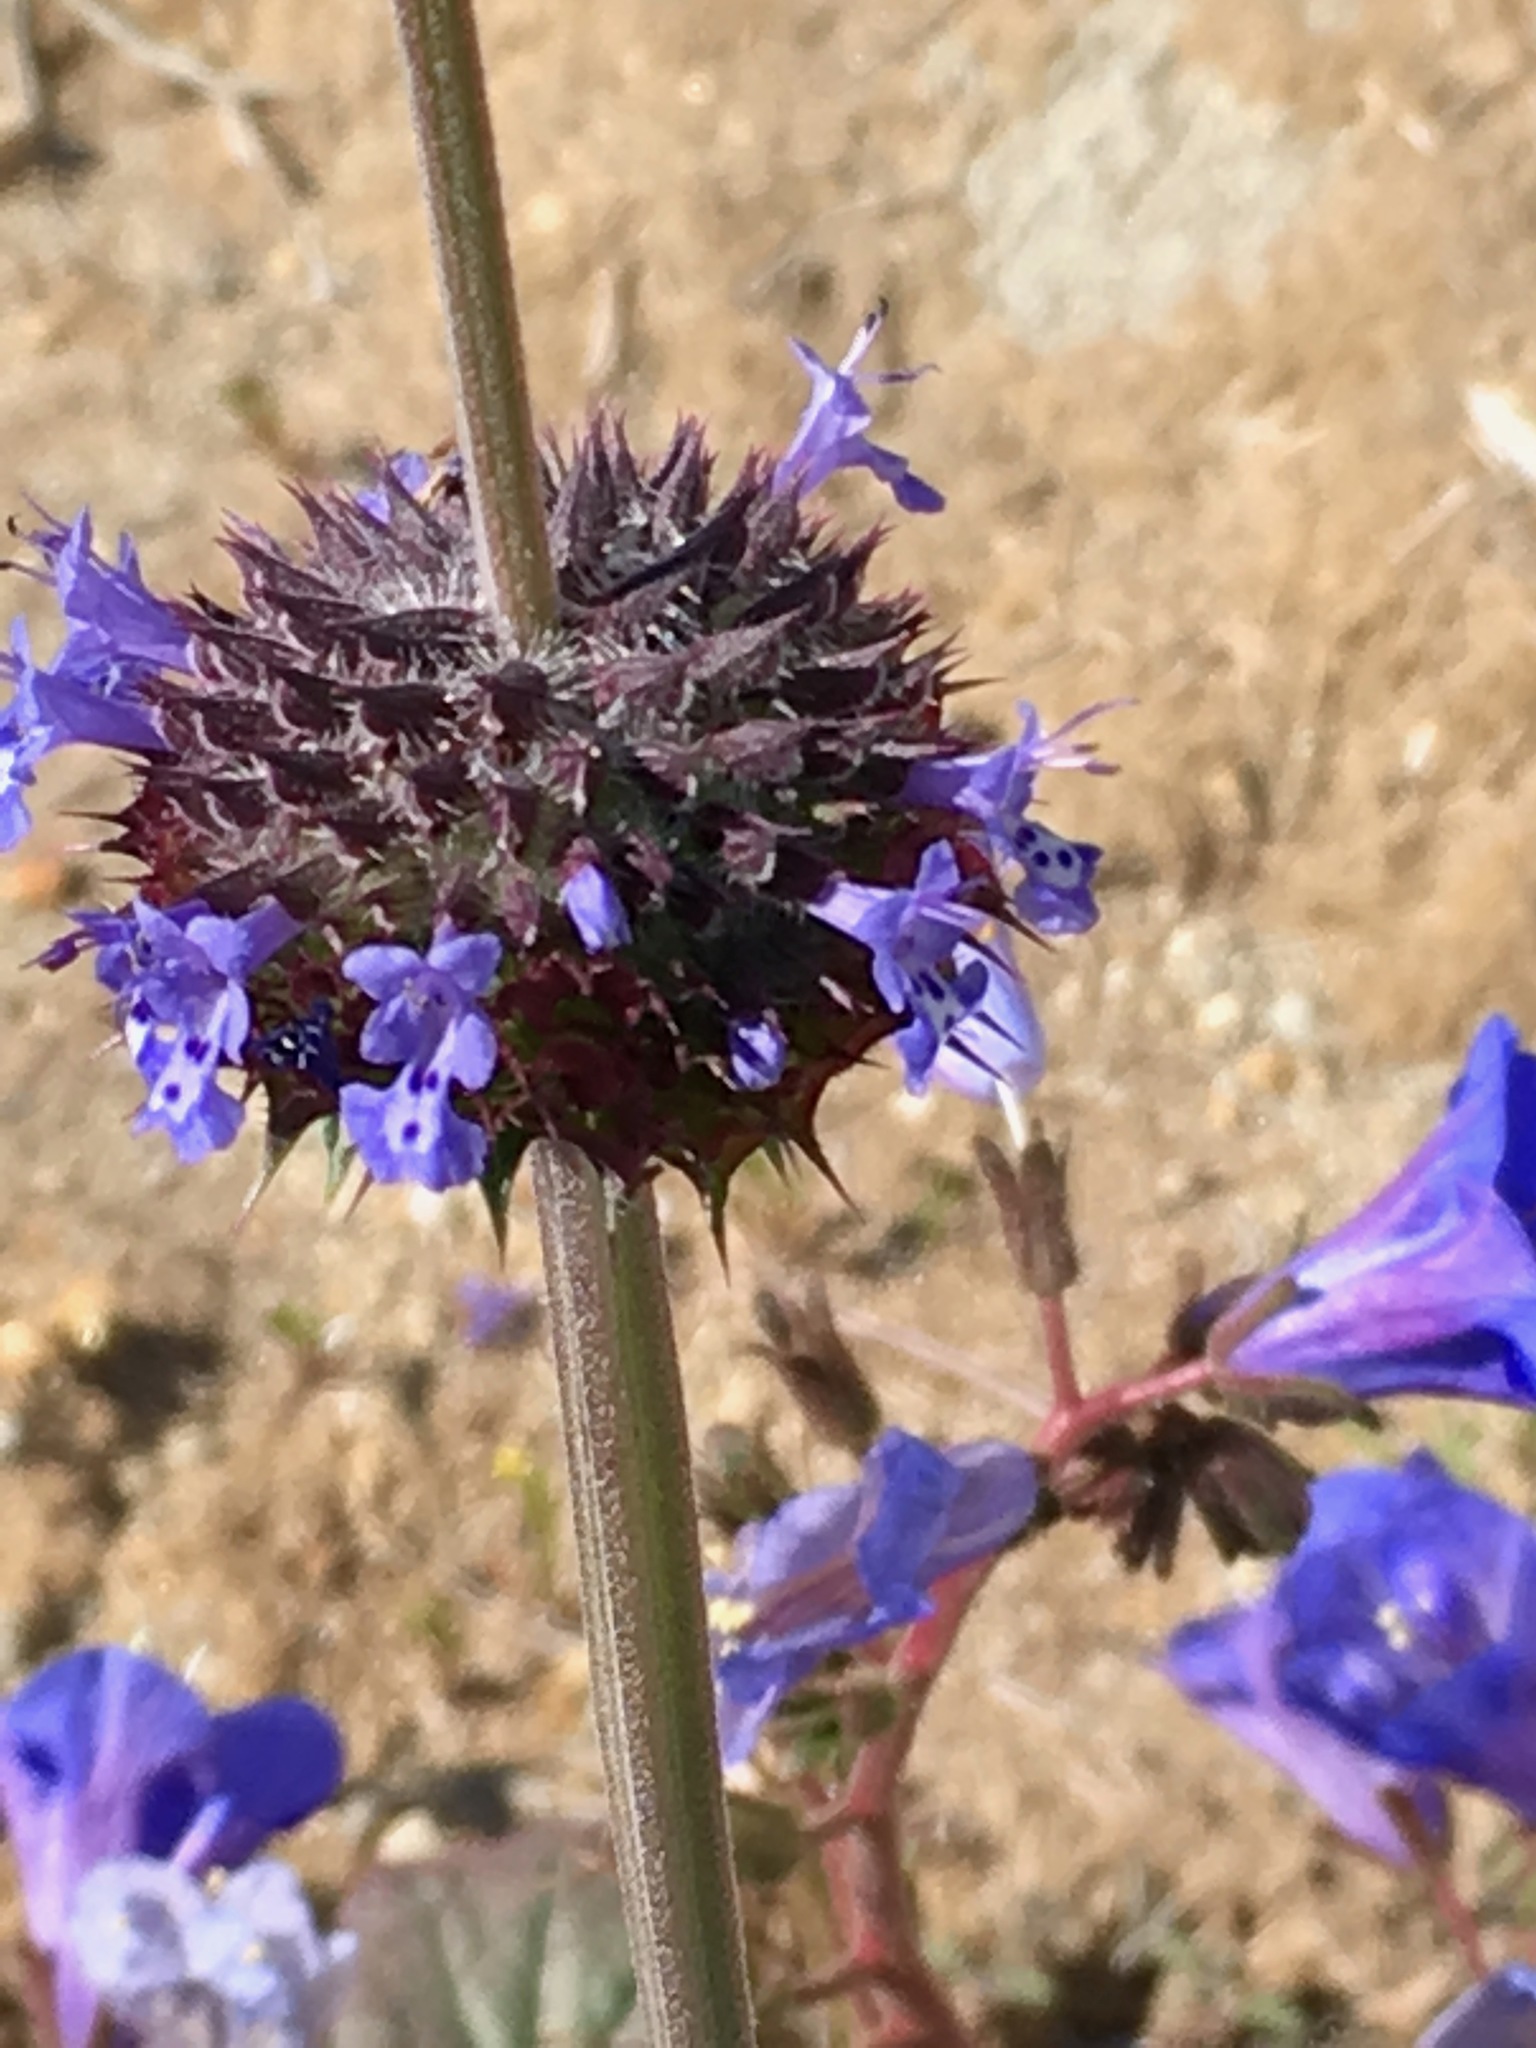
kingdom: Plantae
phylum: Tracheophyta
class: Magnoliopsida
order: Lamiales
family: Lamiaceae
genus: Salvia
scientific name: Salvia columbariae
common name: Chia
